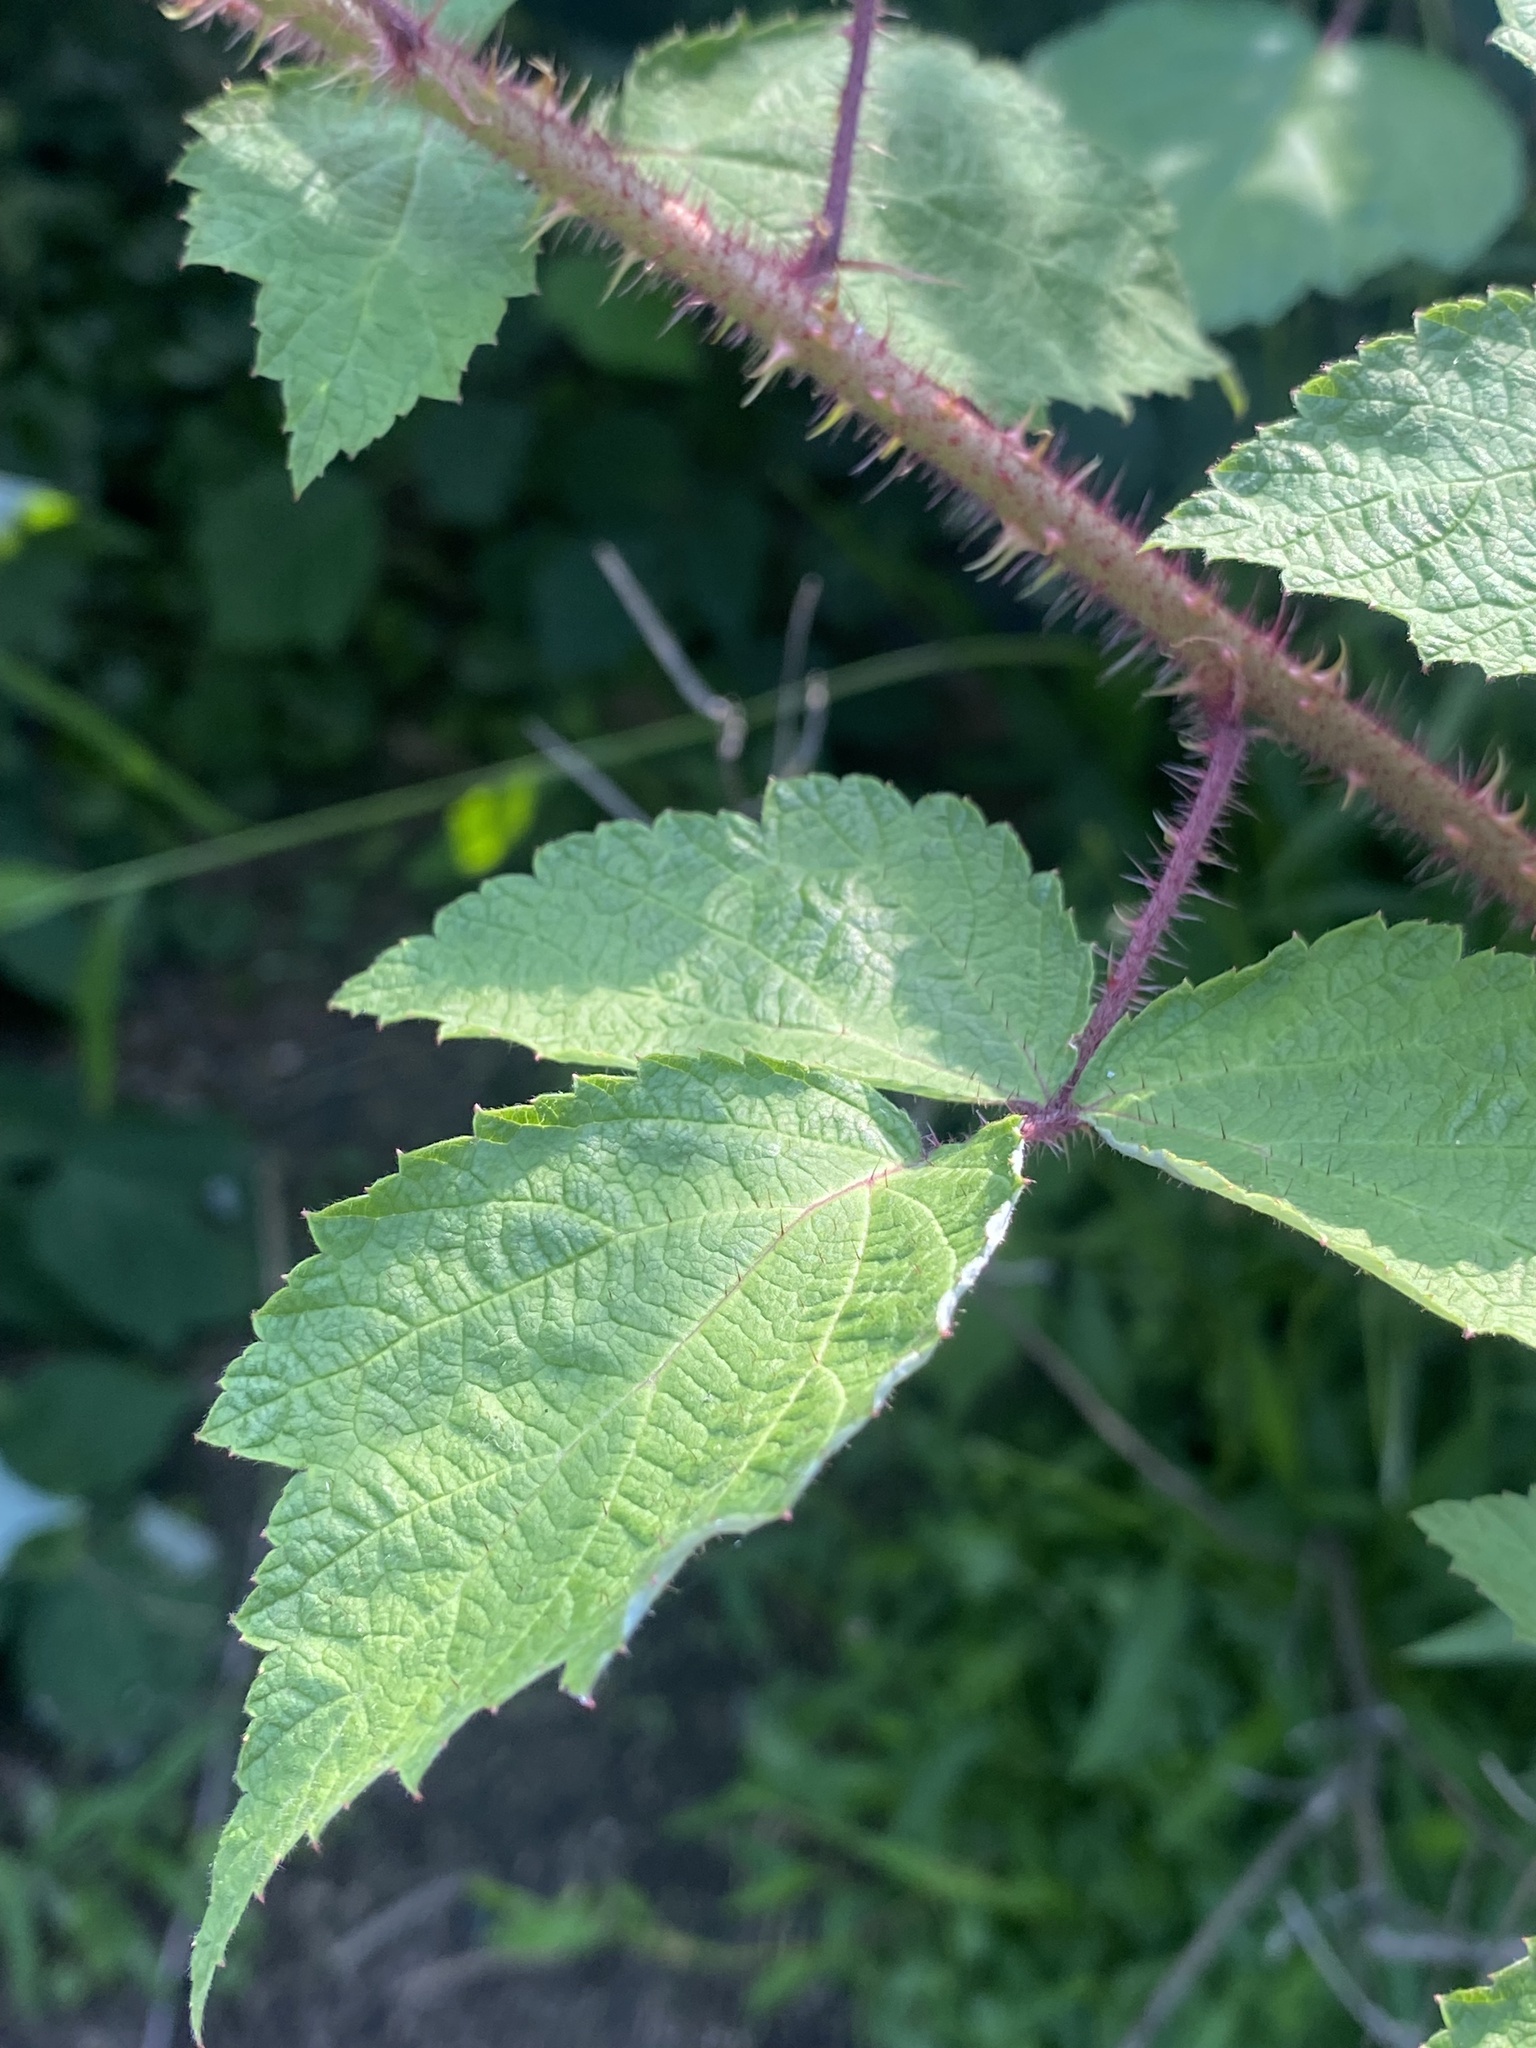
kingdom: Plantae
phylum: Tracheophyta
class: Magnoliopsida
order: Rosales
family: Rosaceae
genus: Rubus
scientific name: Rubus phoenicolasius
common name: Japanese wineberry
